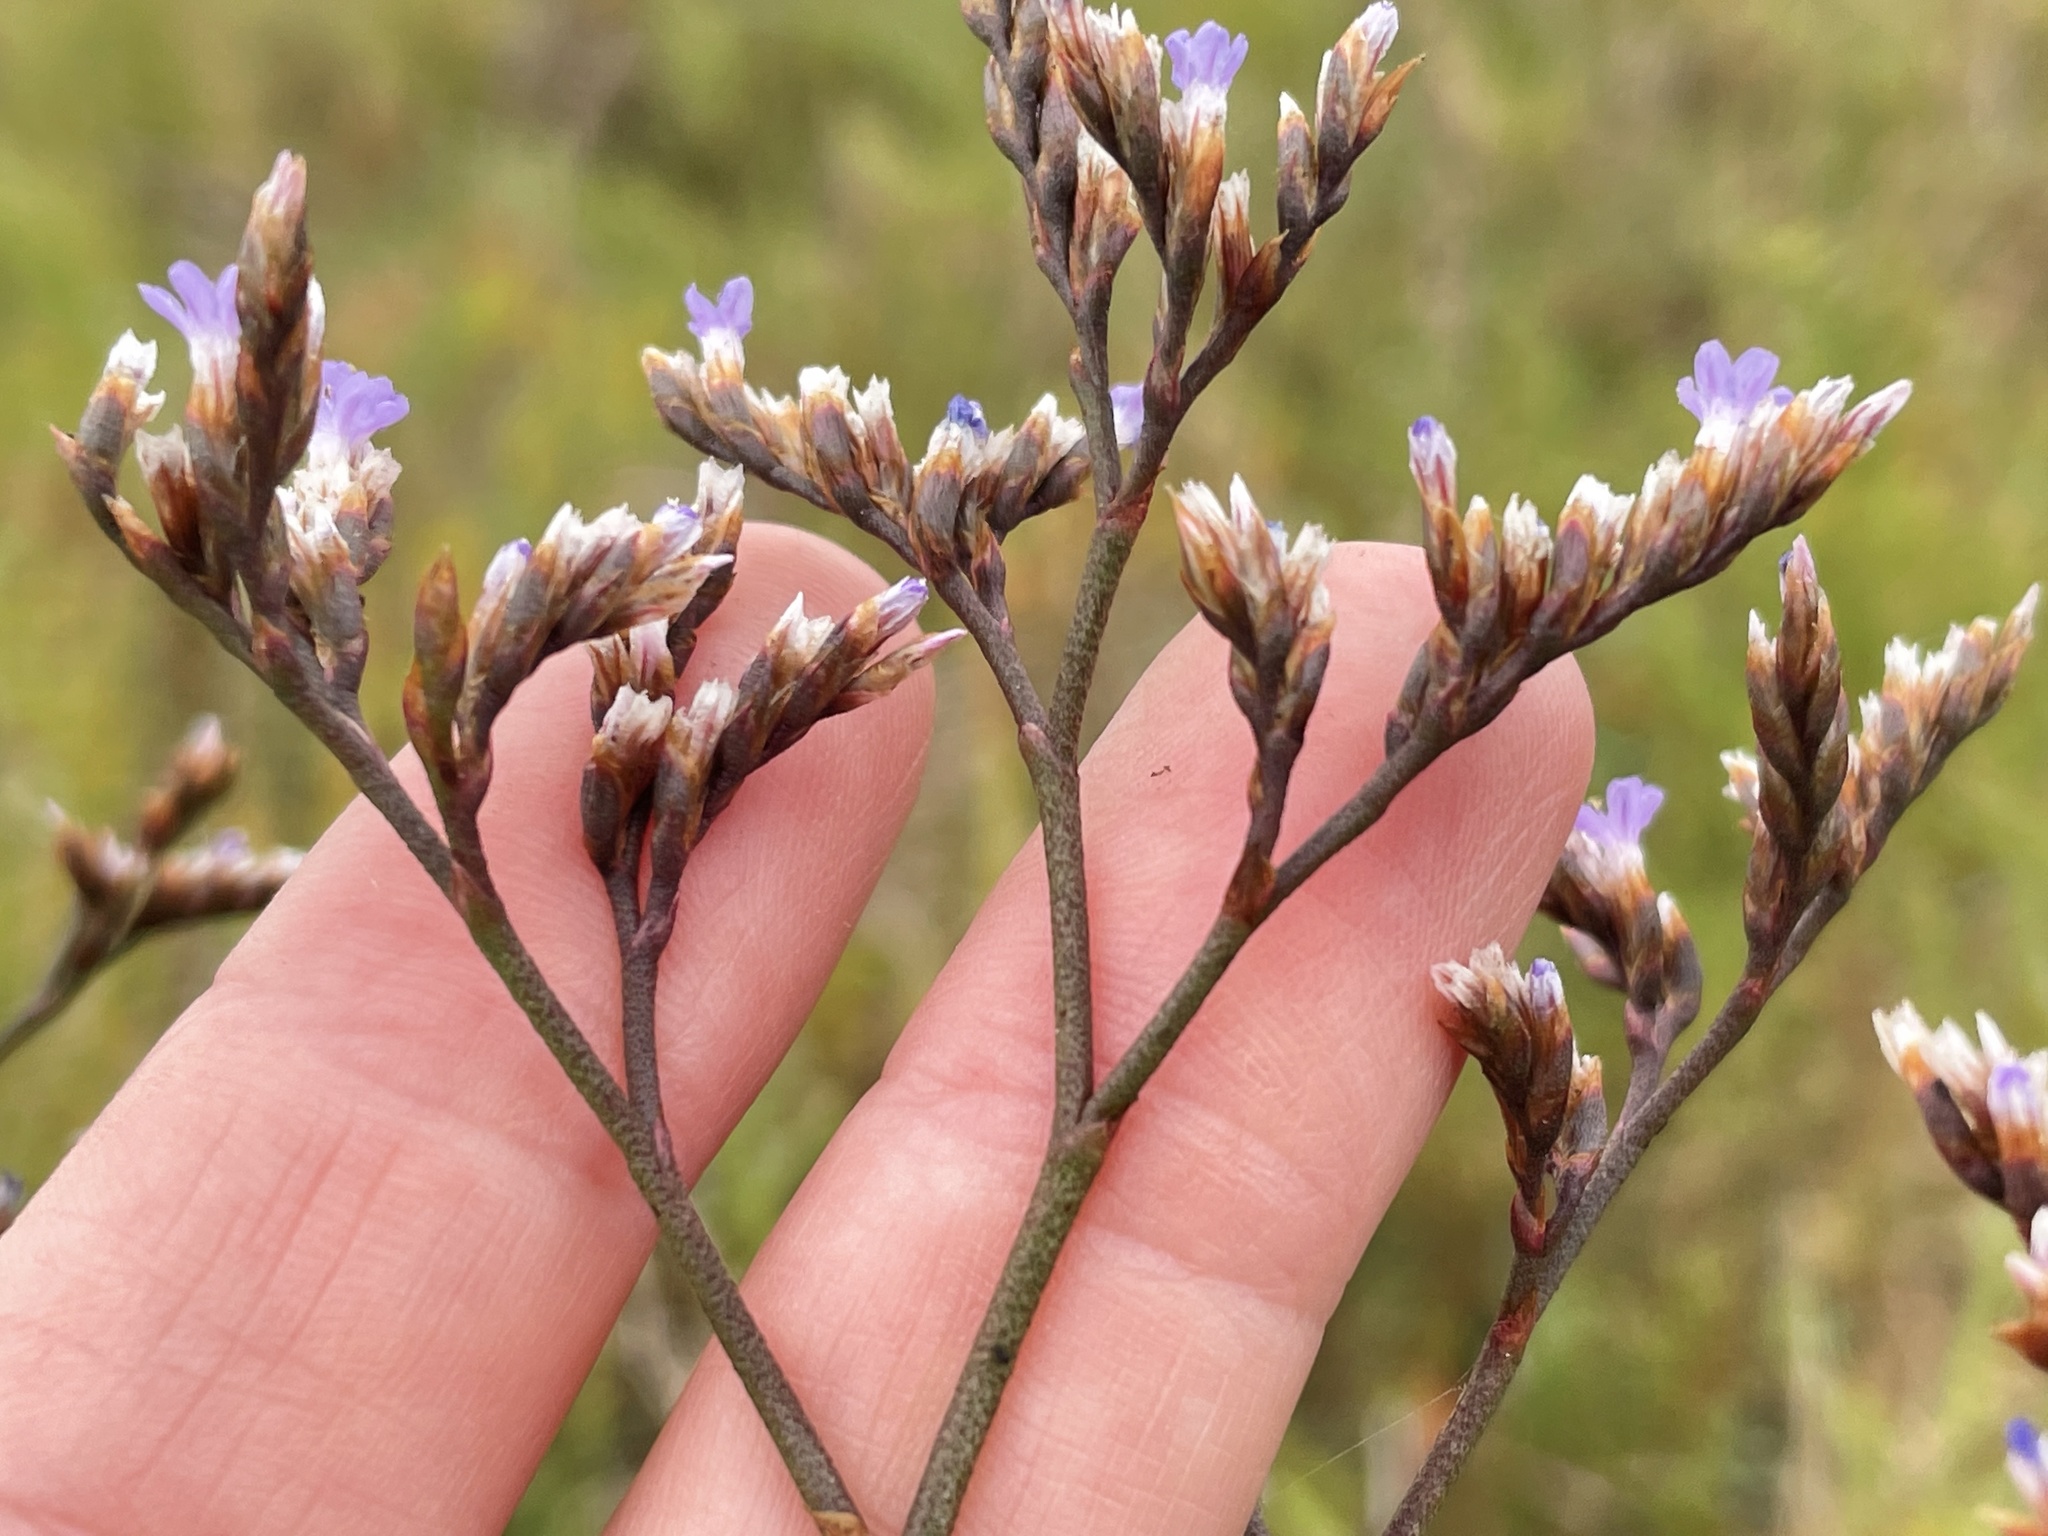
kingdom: Plantae
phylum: Tracheophyta
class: Magnoliopsida
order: Caryophyllales
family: Plumbaginaceae
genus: Limonium
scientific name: Limonium californicum
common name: Marsh-rosemary
